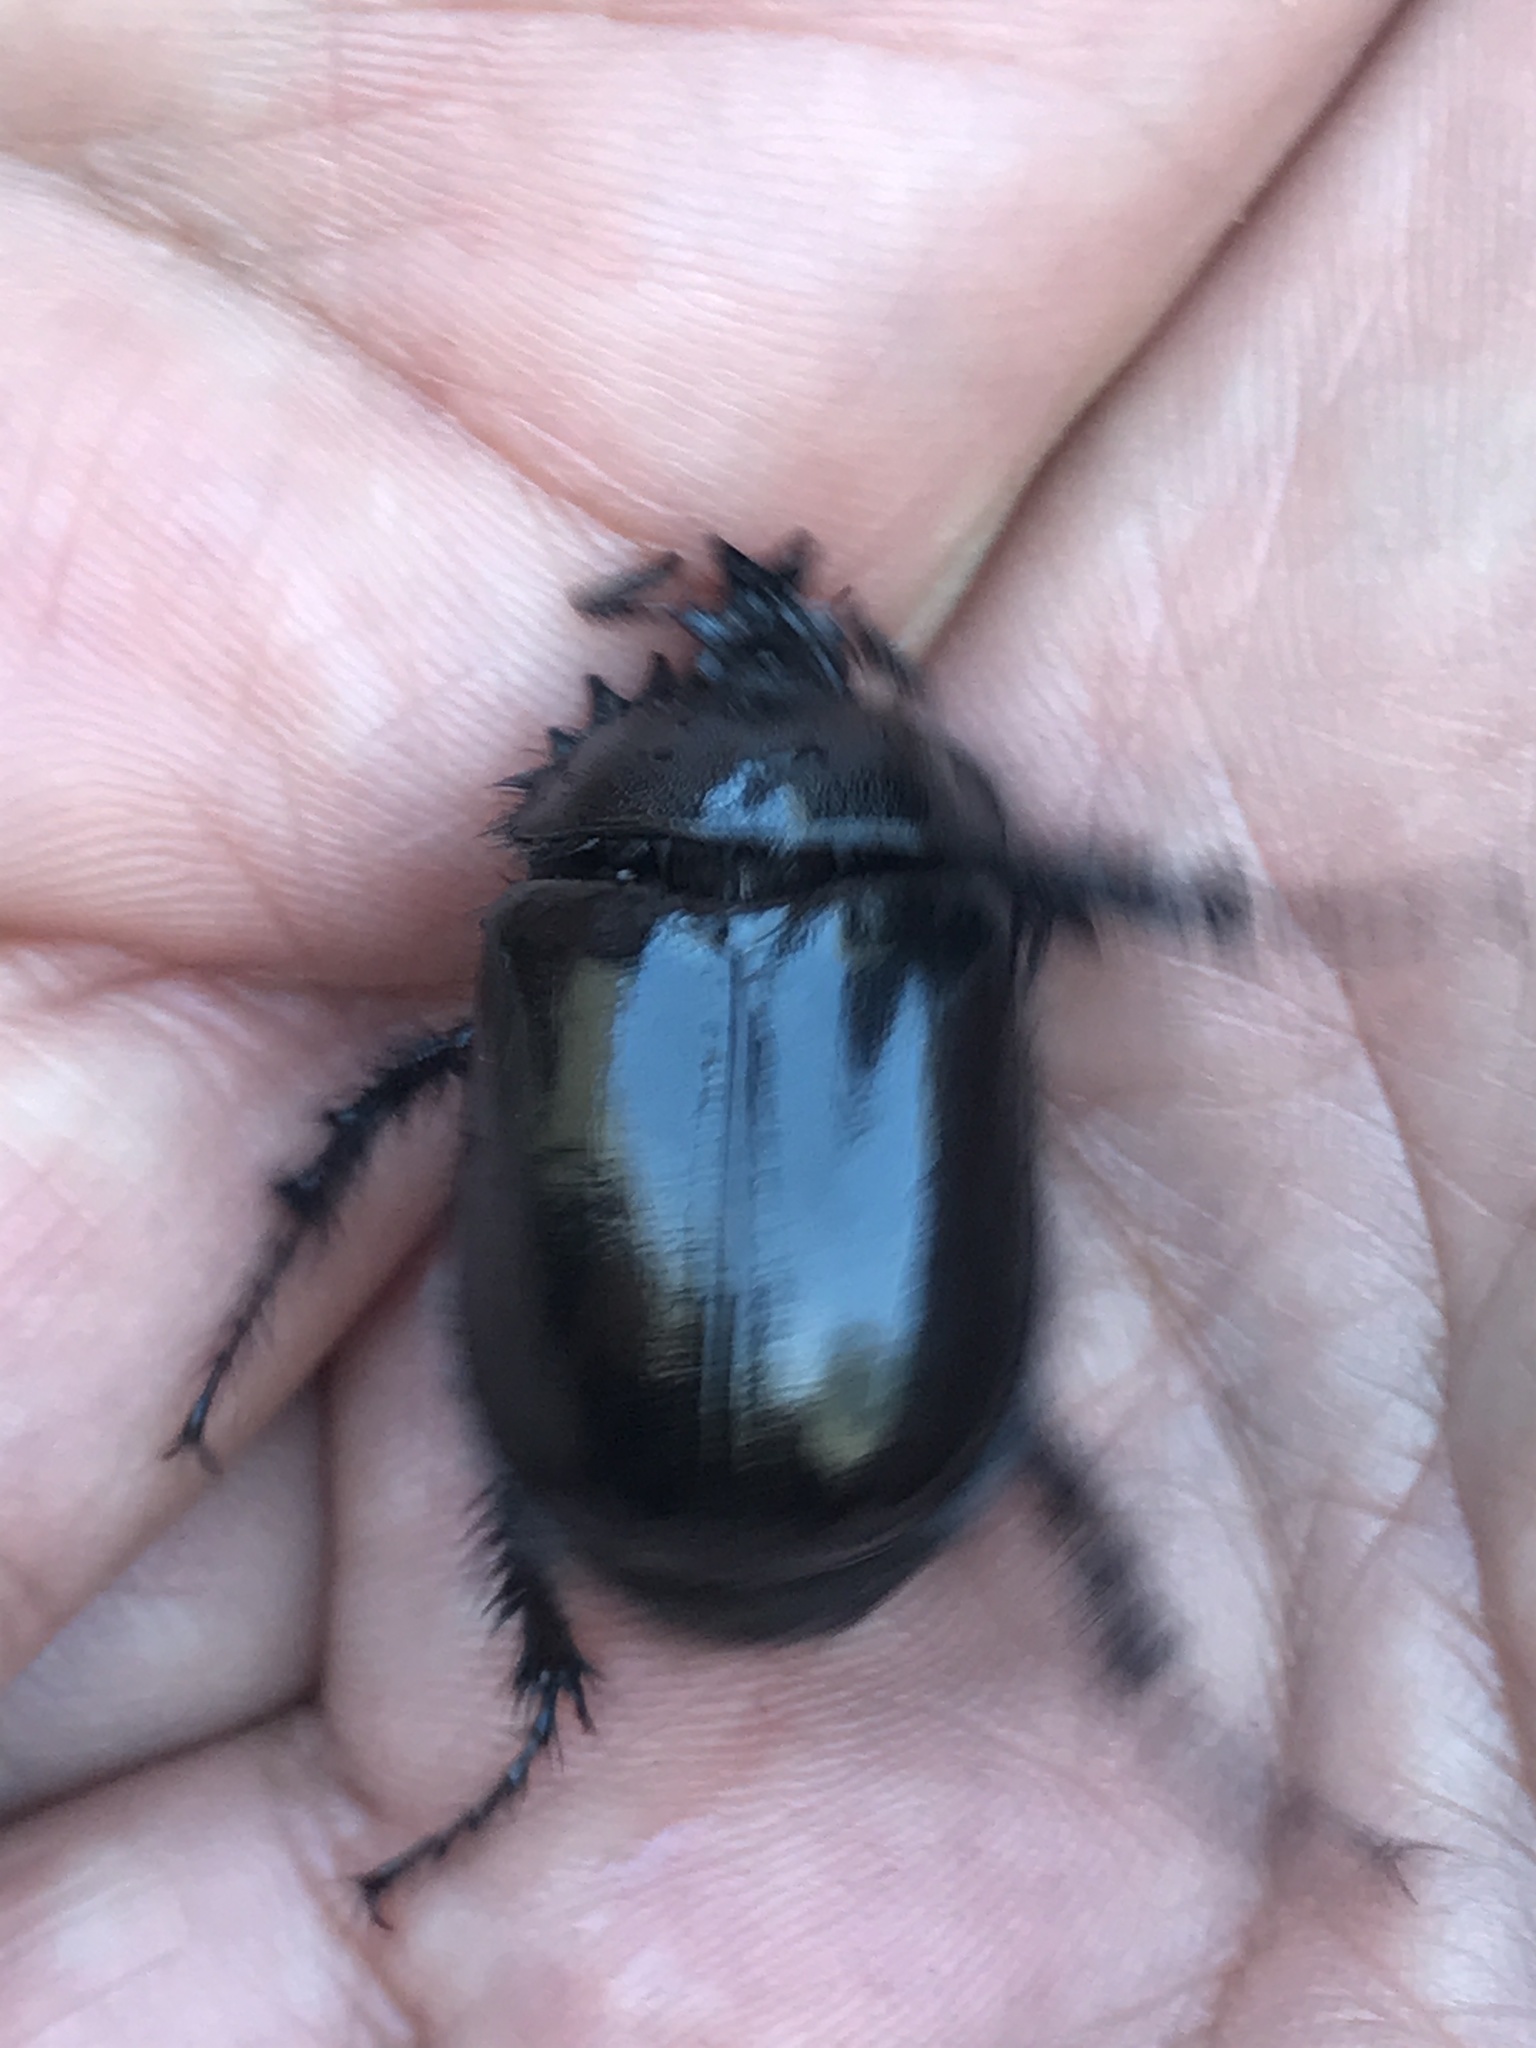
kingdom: Animalia
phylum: Arthropoda
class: Insecta
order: Coleoptera
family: Pleocomidae
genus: Pleocoma
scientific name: Pleocoma puncticollis
